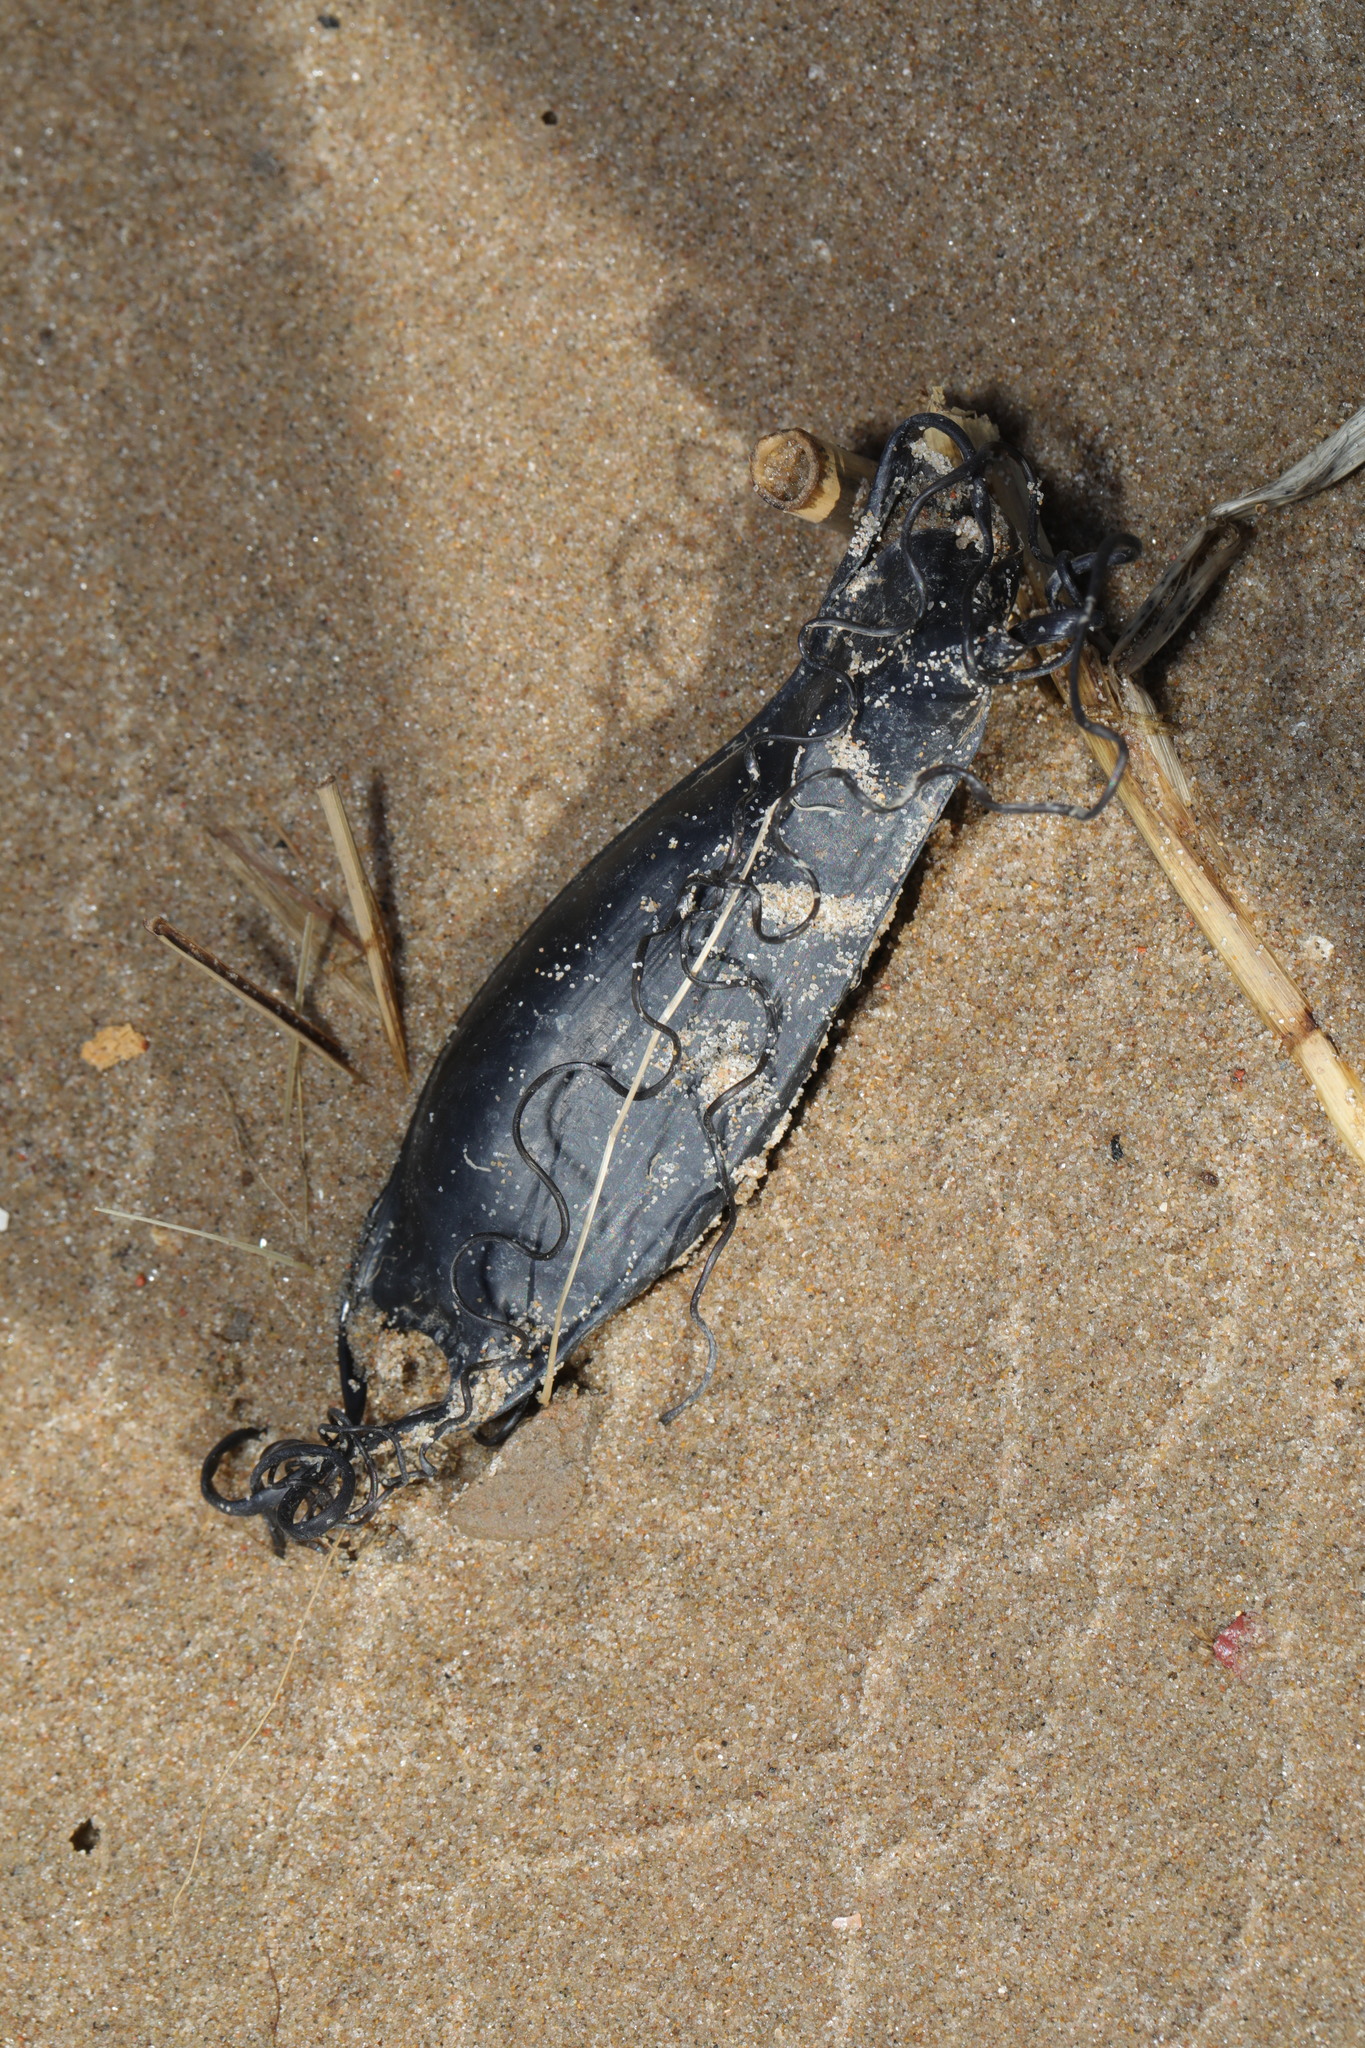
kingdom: Animalia
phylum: Chordata
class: Elasmobranchii
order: Carcharhiniformes
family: Scyliorhinidae
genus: Scyliorhinus
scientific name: Scyliorhinus canicula
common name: Lesser spotted dogfish
